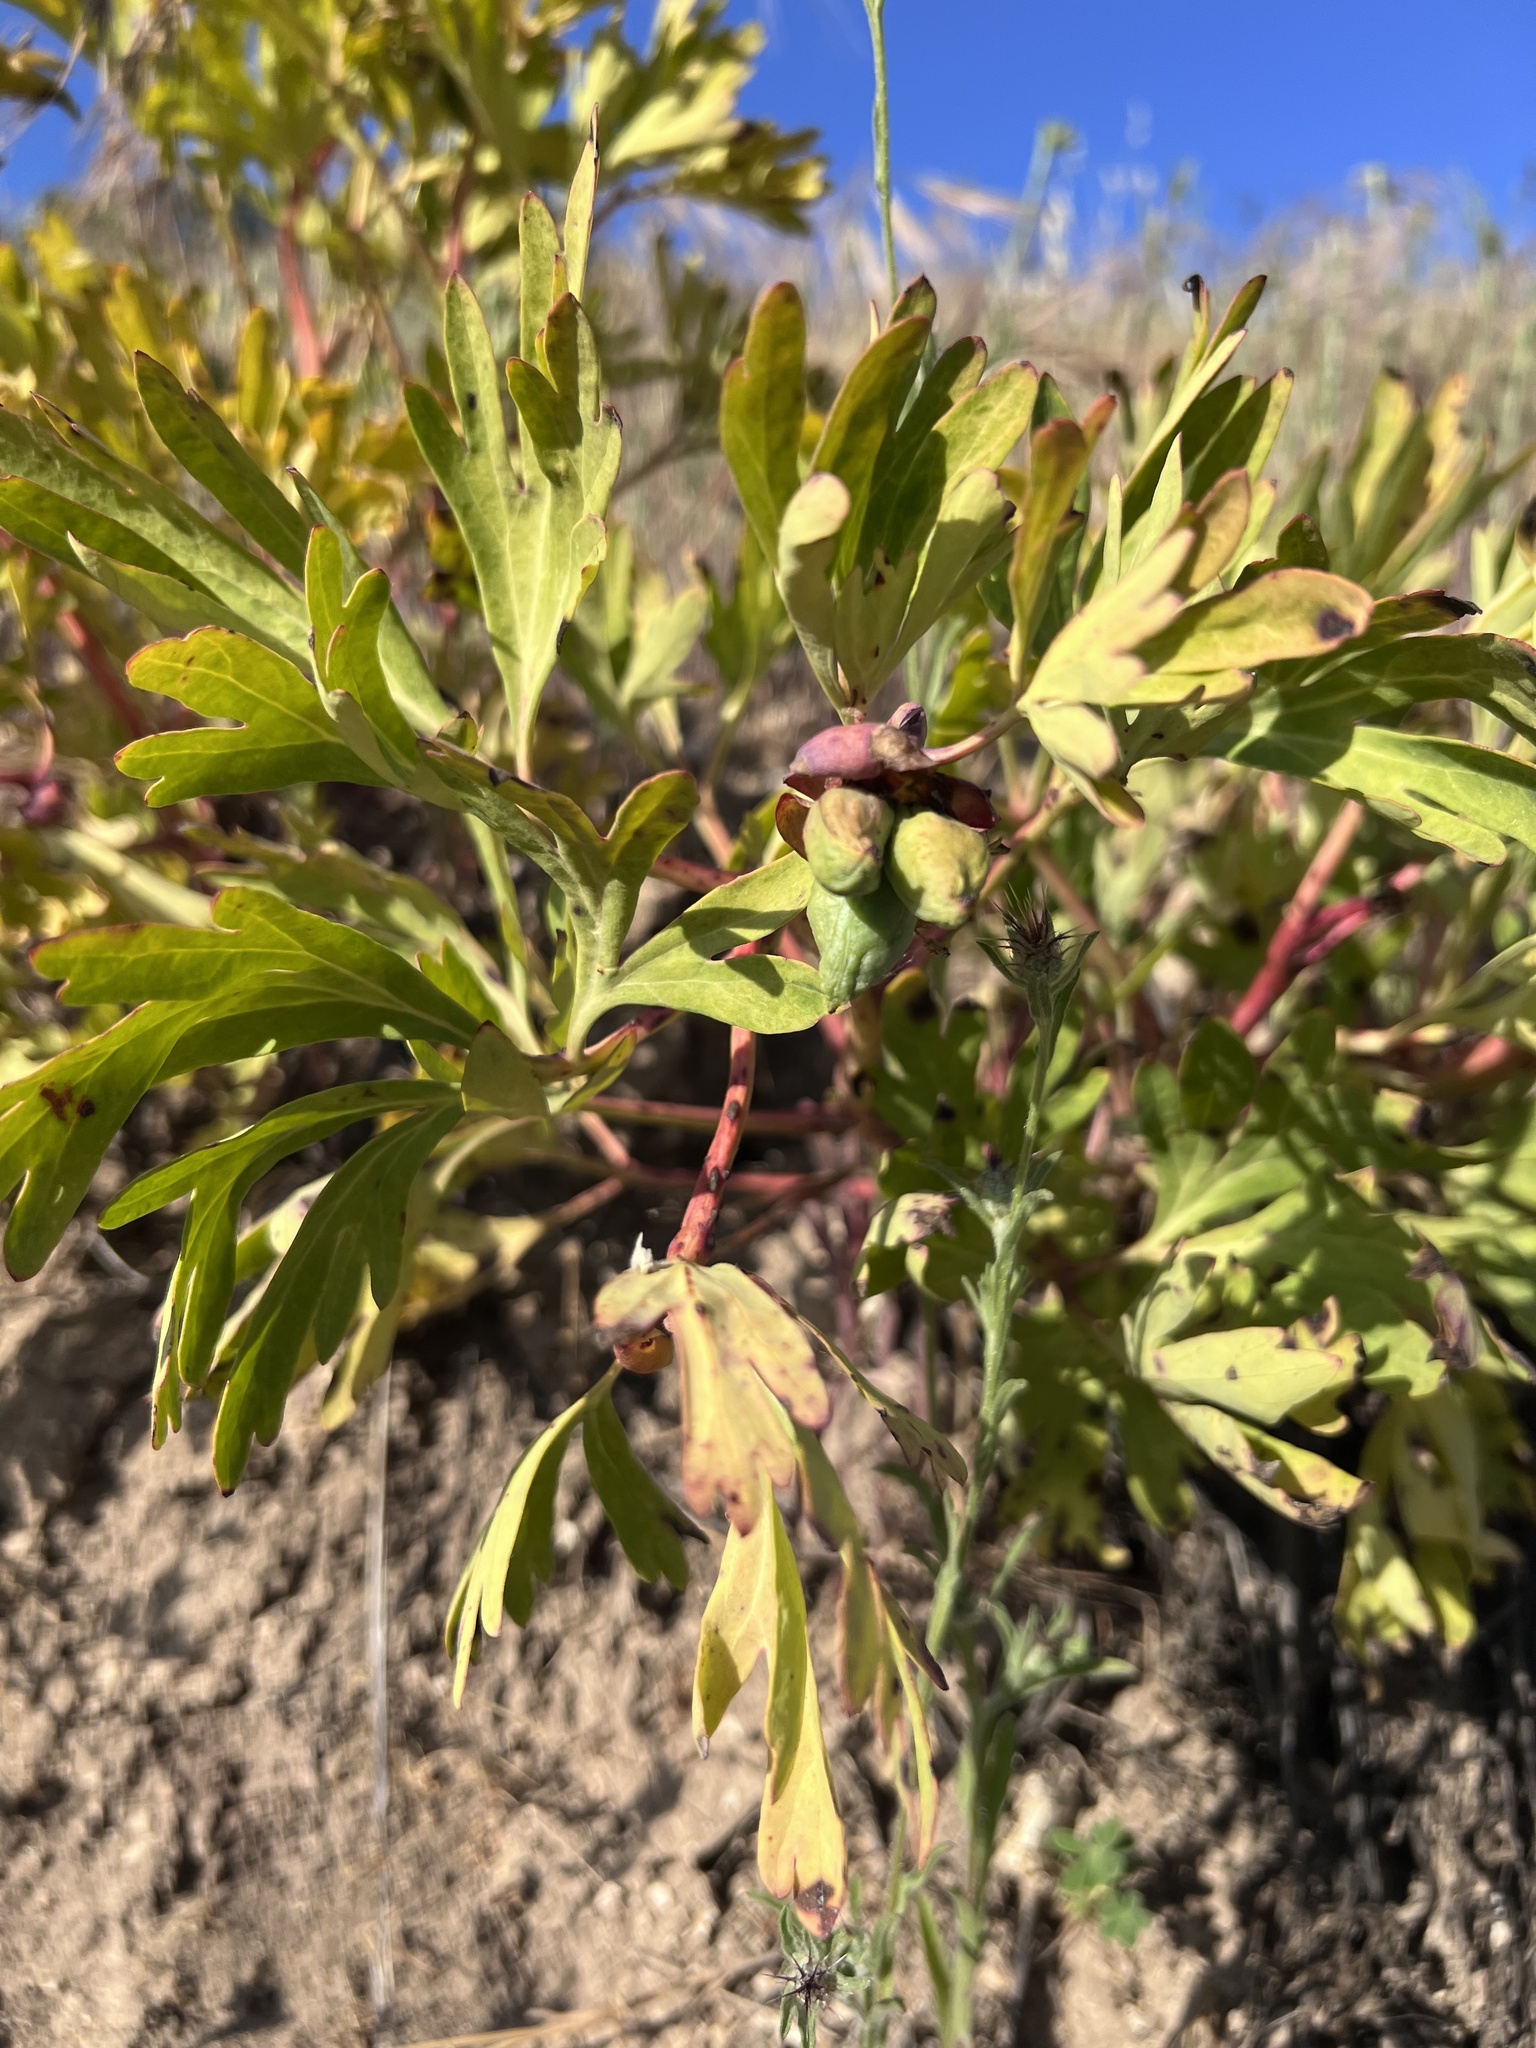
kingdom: Plantae
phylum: Tracheophyta
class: Magnoliopsida
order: Saxifragales
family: Paeoniaceae
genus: Paeonia
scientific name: Paeonia californica
